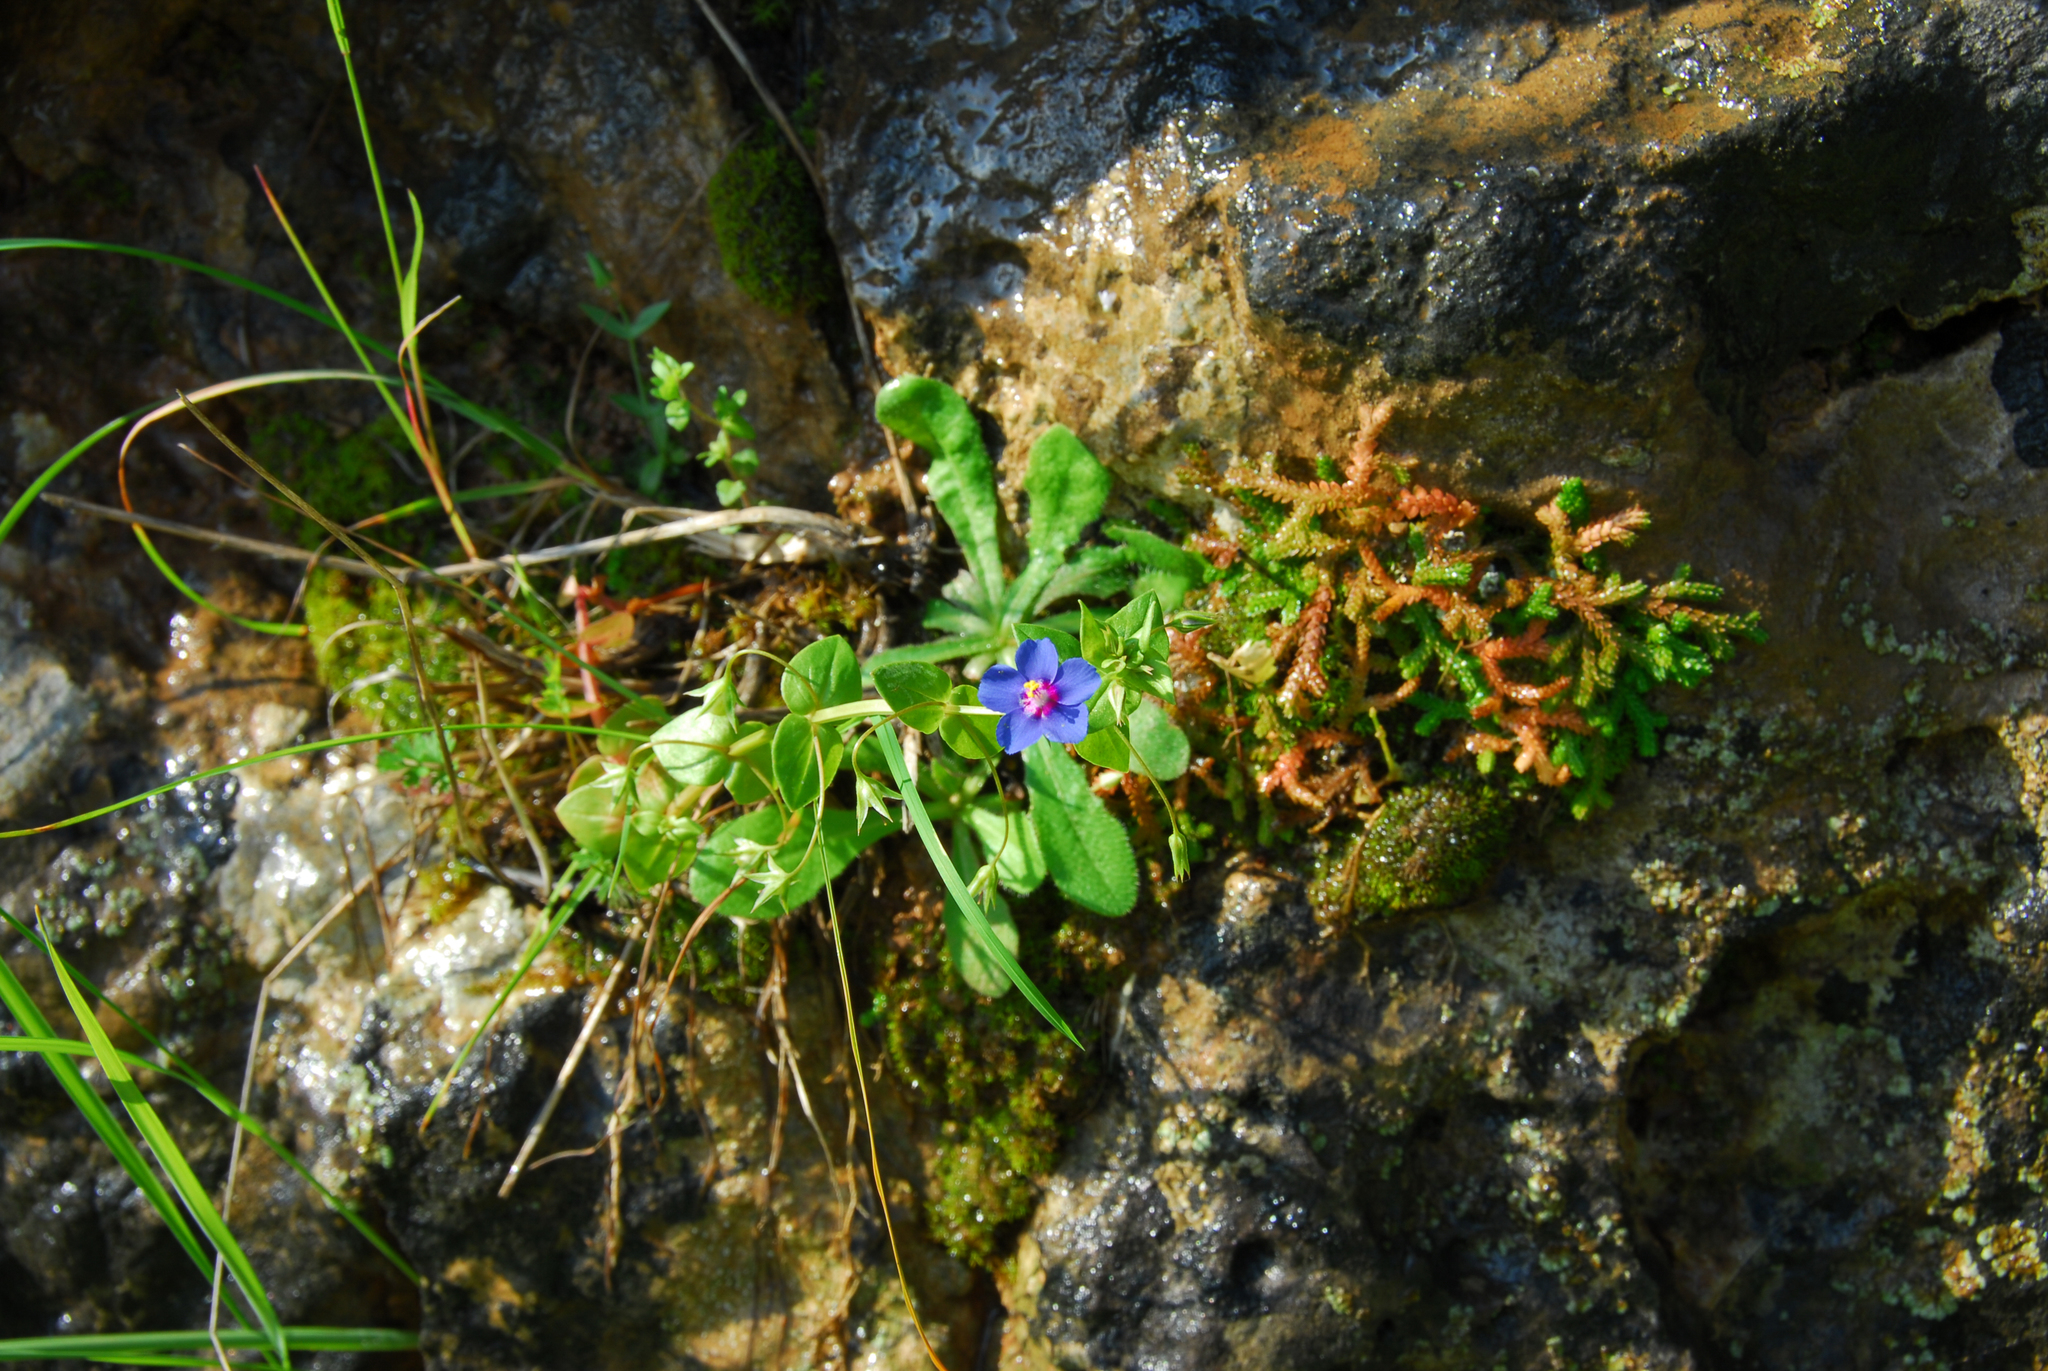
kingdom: Plantae
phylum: Tracheophyta
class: Magnoliopsida
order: Ericales
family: Primulaceae
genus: Lysimachia
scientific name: Lysimachia foemina
